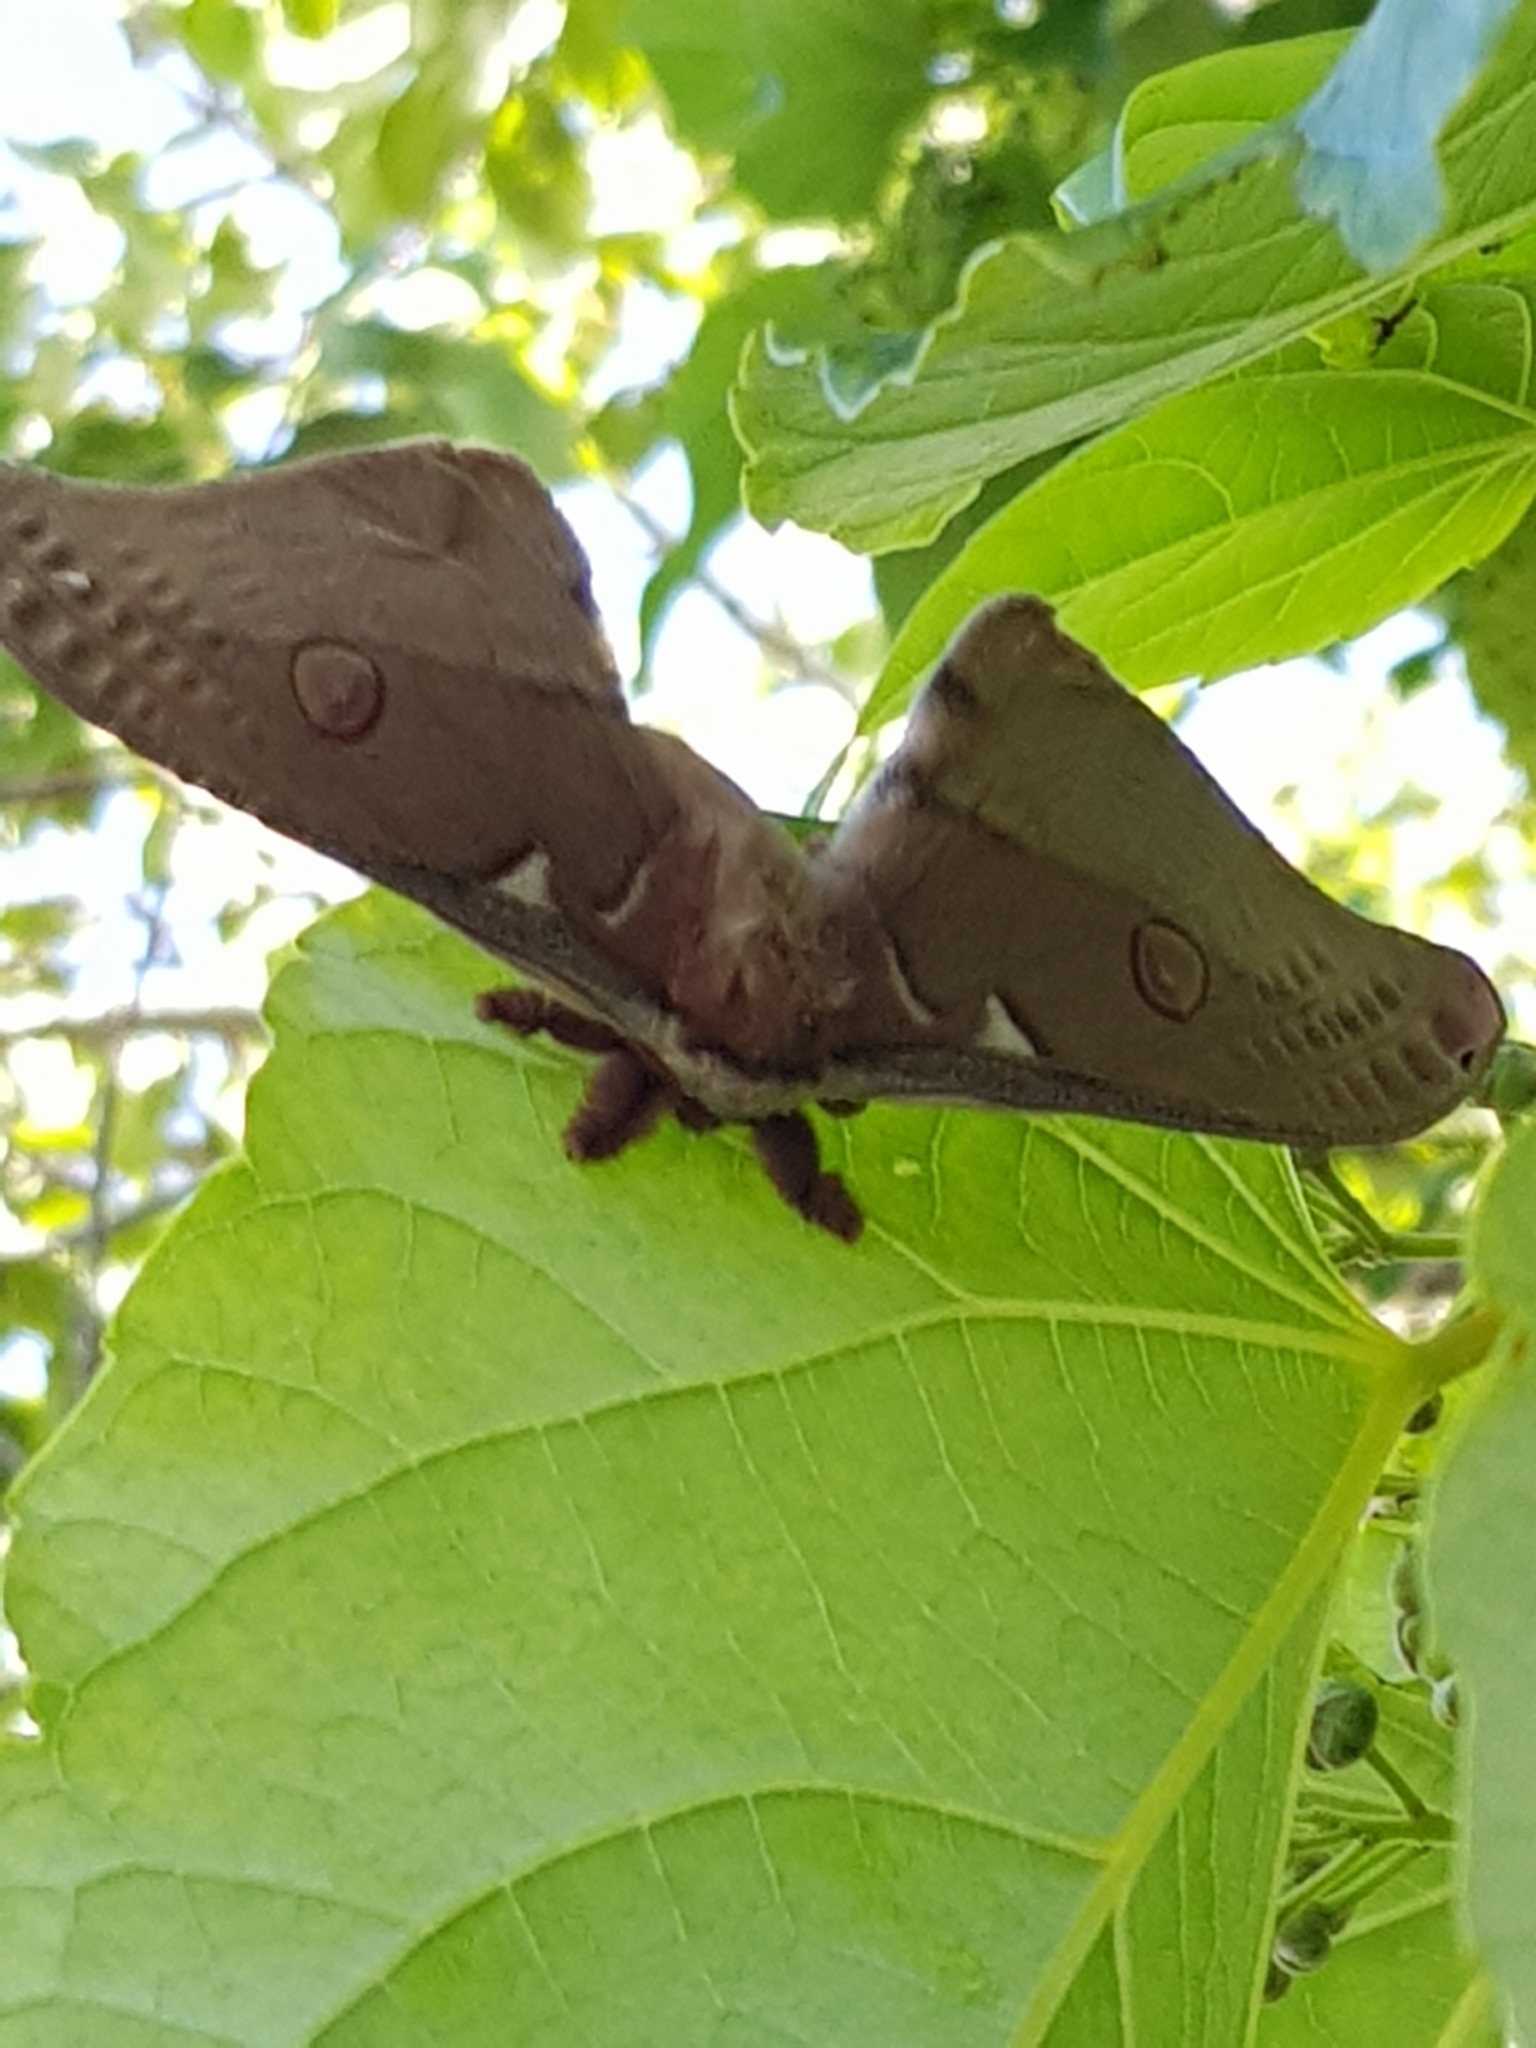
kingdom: Animalia
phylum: Arthropoda
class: Insecta
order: Lepidoptera
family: Saturniidae
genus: Opodiphthera
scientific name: Opodiphthera
